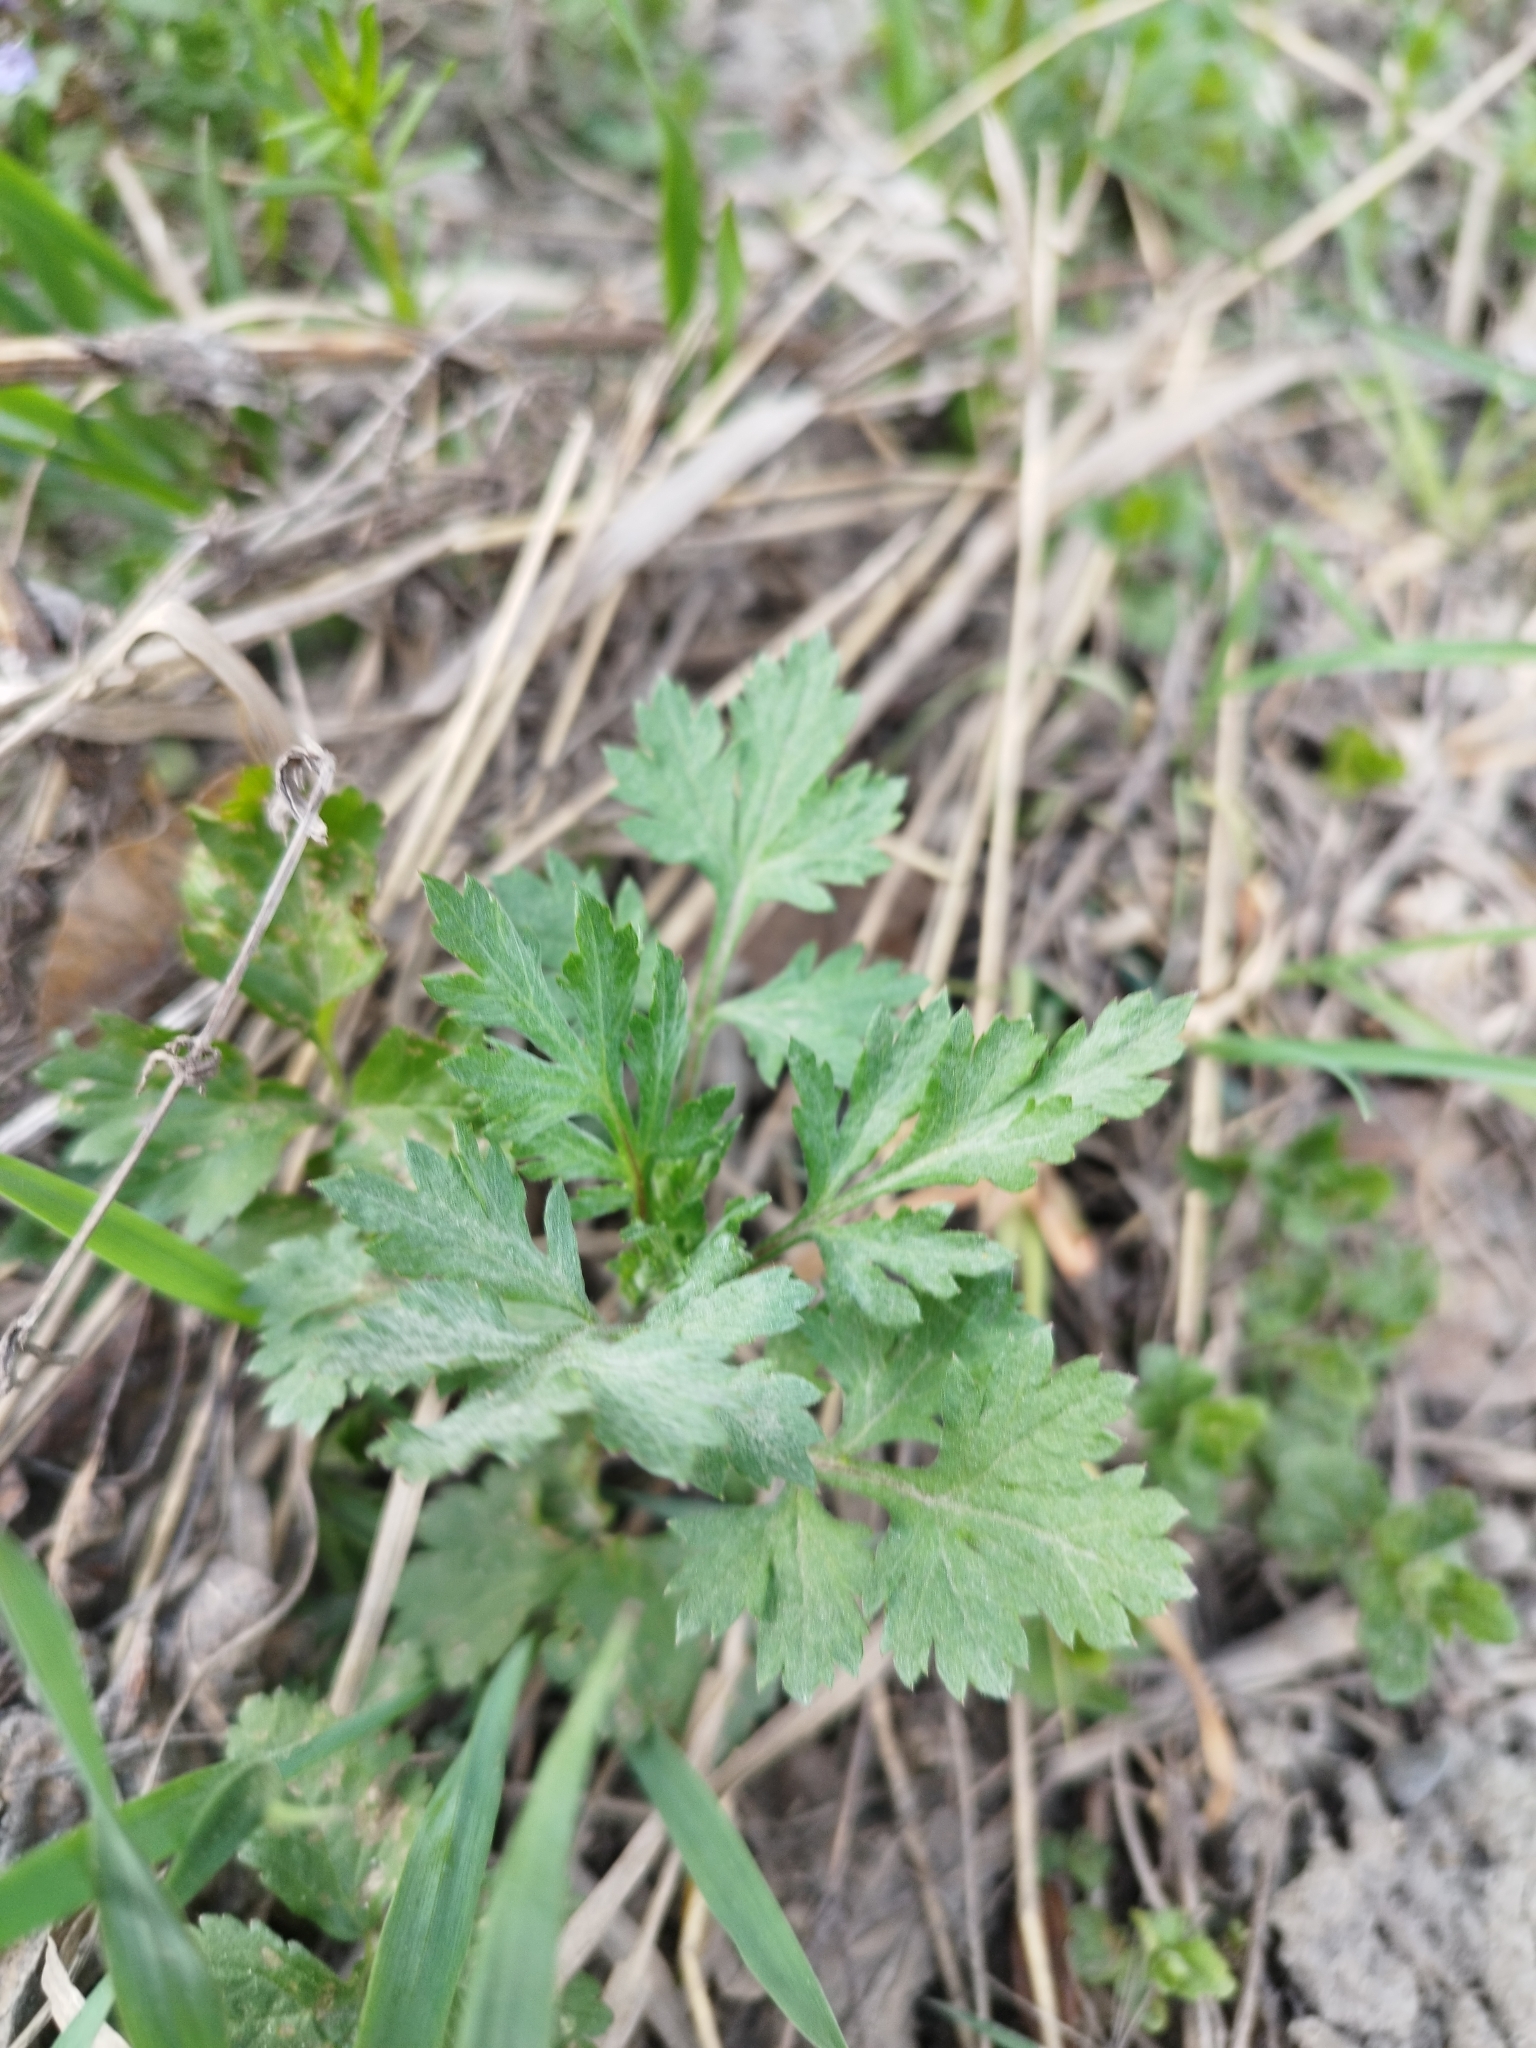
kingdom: Plantae
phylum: Tracheophyta
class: Magnoliopsida
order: Asterales
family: Asteraceae
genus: Artemisia
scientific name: Artemisia vulgaris
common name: Mugwort
